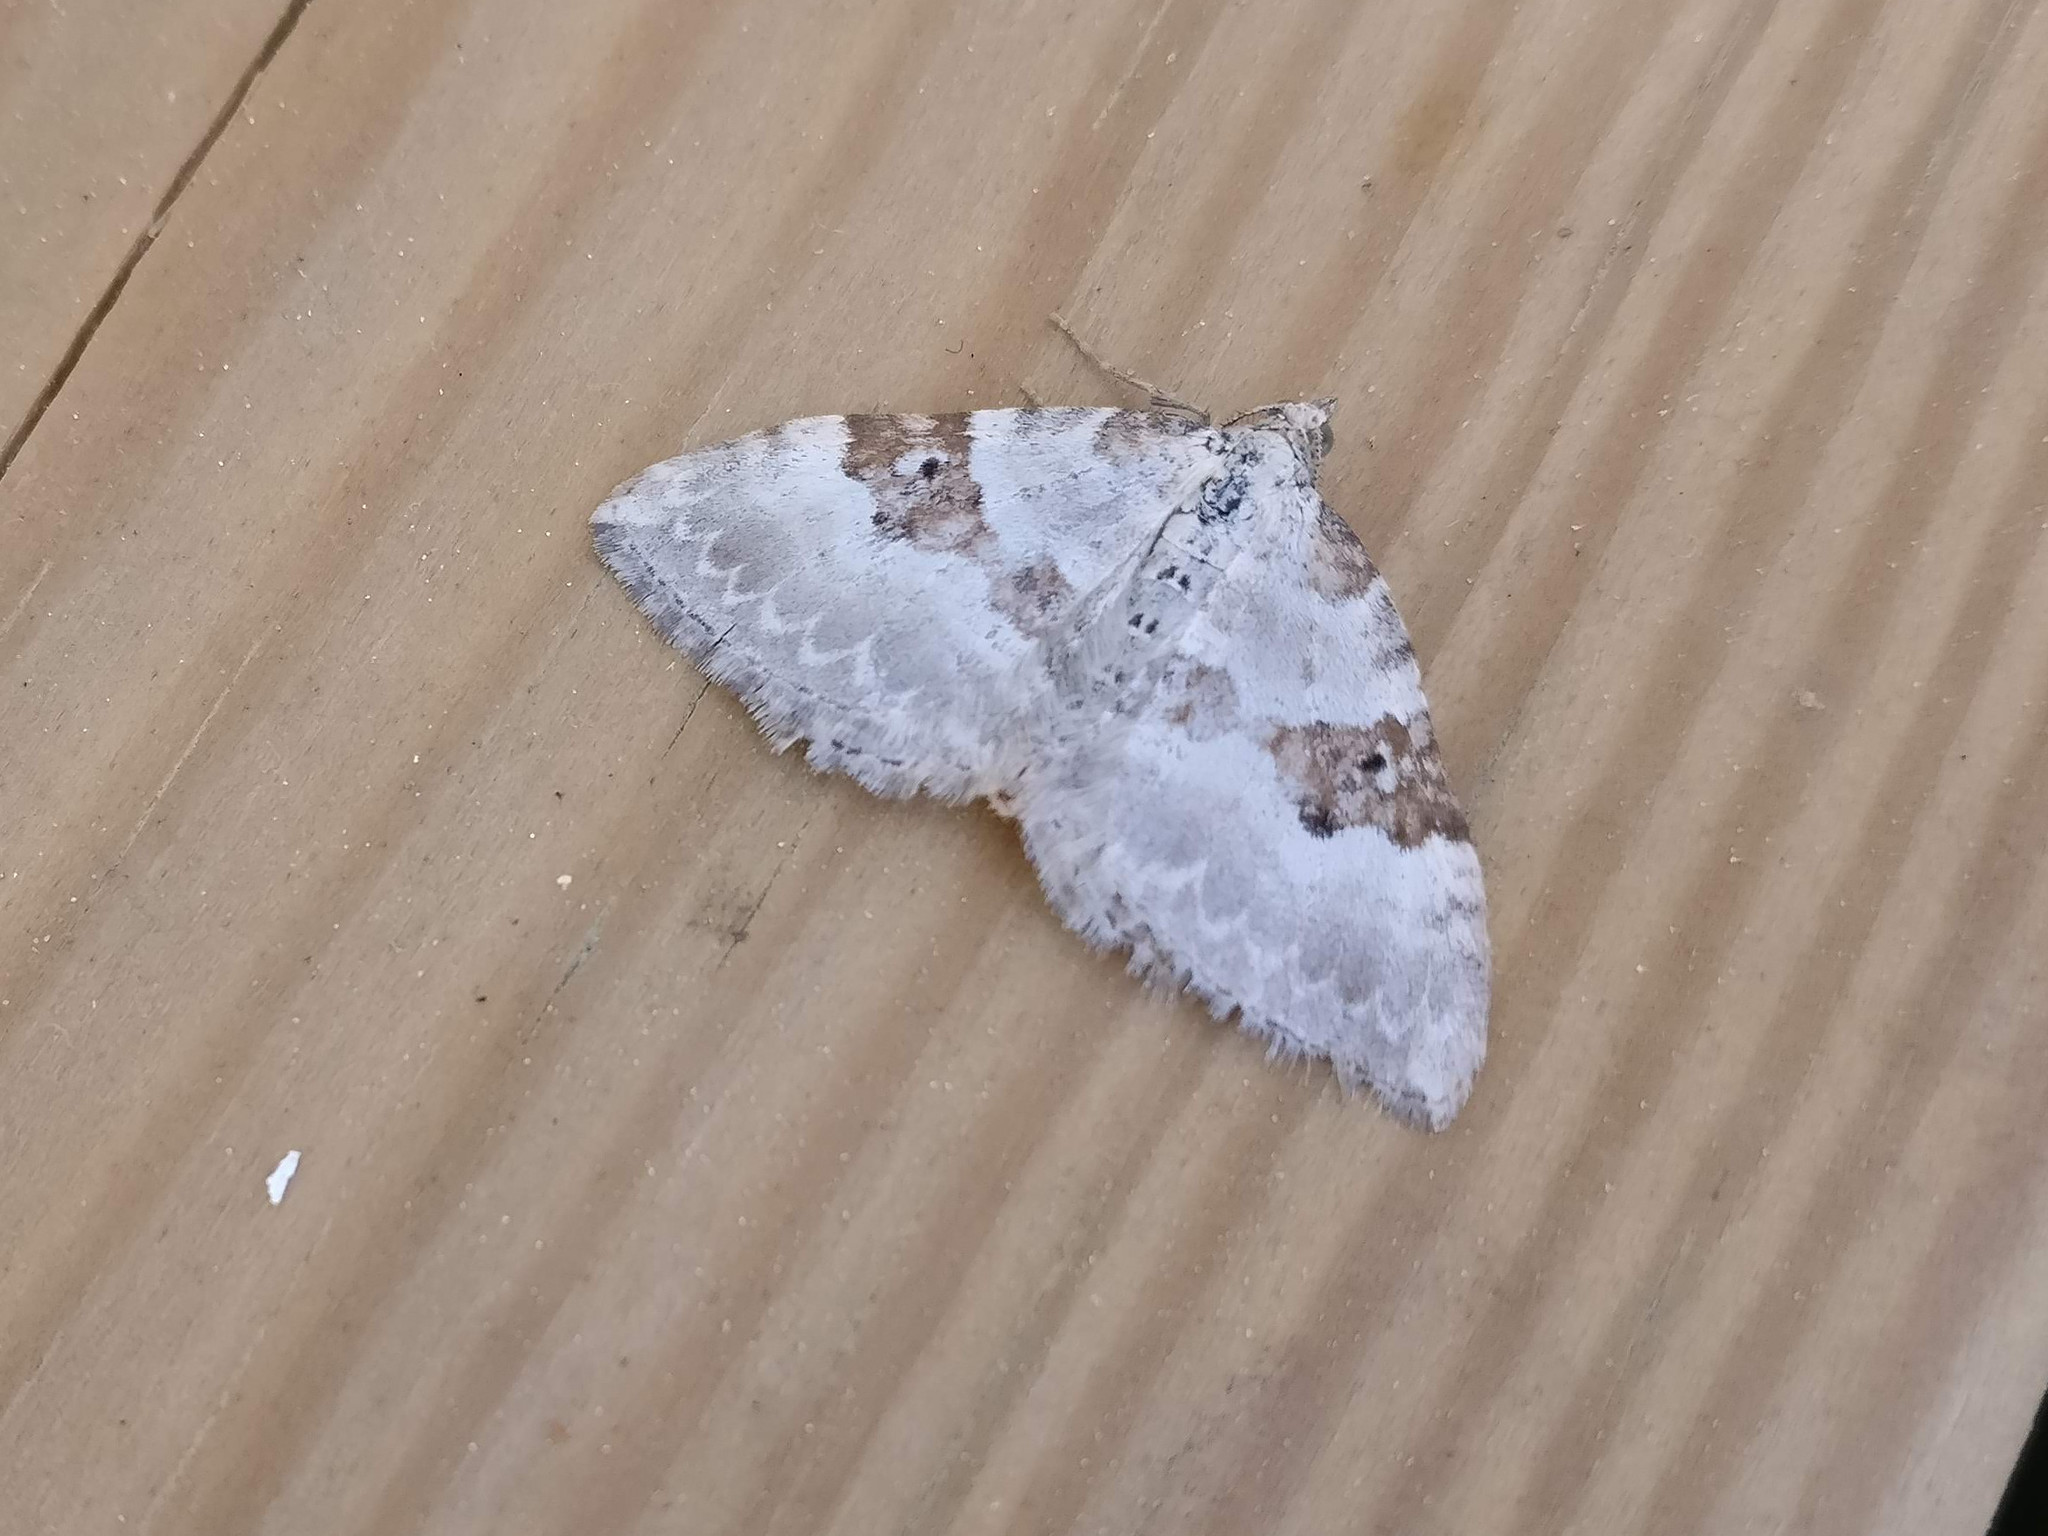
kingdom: Animalia
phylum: Arthropoda
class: Insecta
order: Lepidoptera
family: Geometridae
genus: Xanthorhoe
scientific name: Xanthorhoe montanata
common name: Silver-ground carpet
